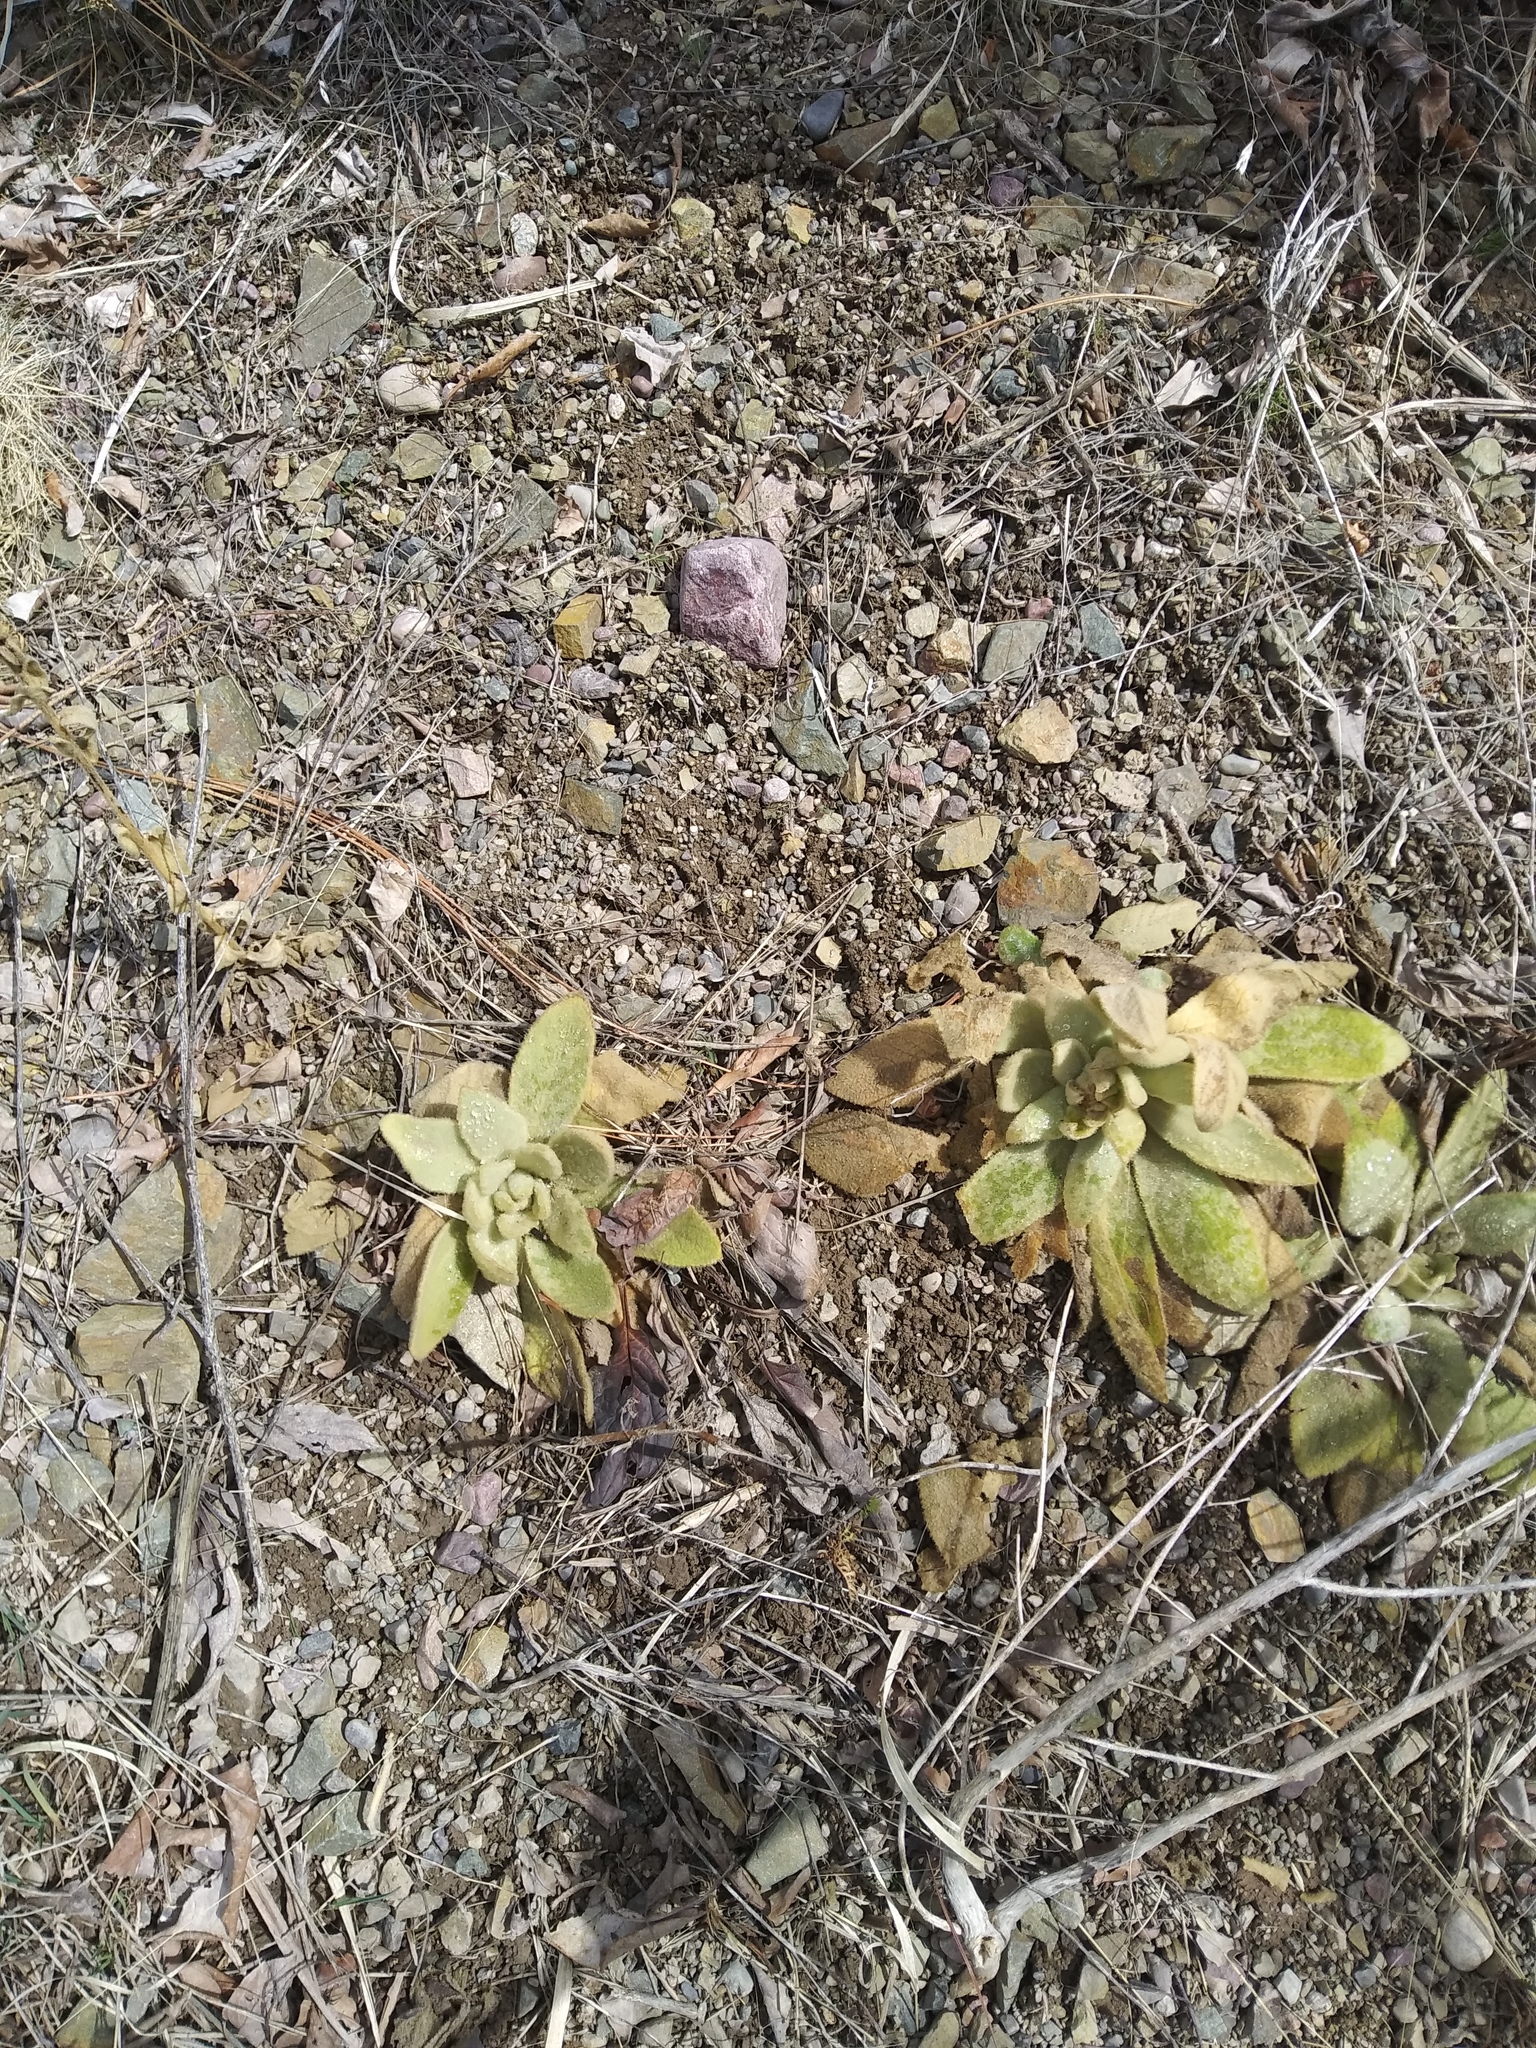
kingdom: Plantae
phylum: Tracheophyta
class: Magnoliopsida
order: Lamiales
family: Scrophulariaceae
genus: Verbascum
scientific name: Verbascum thapsus
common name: Common mullein
